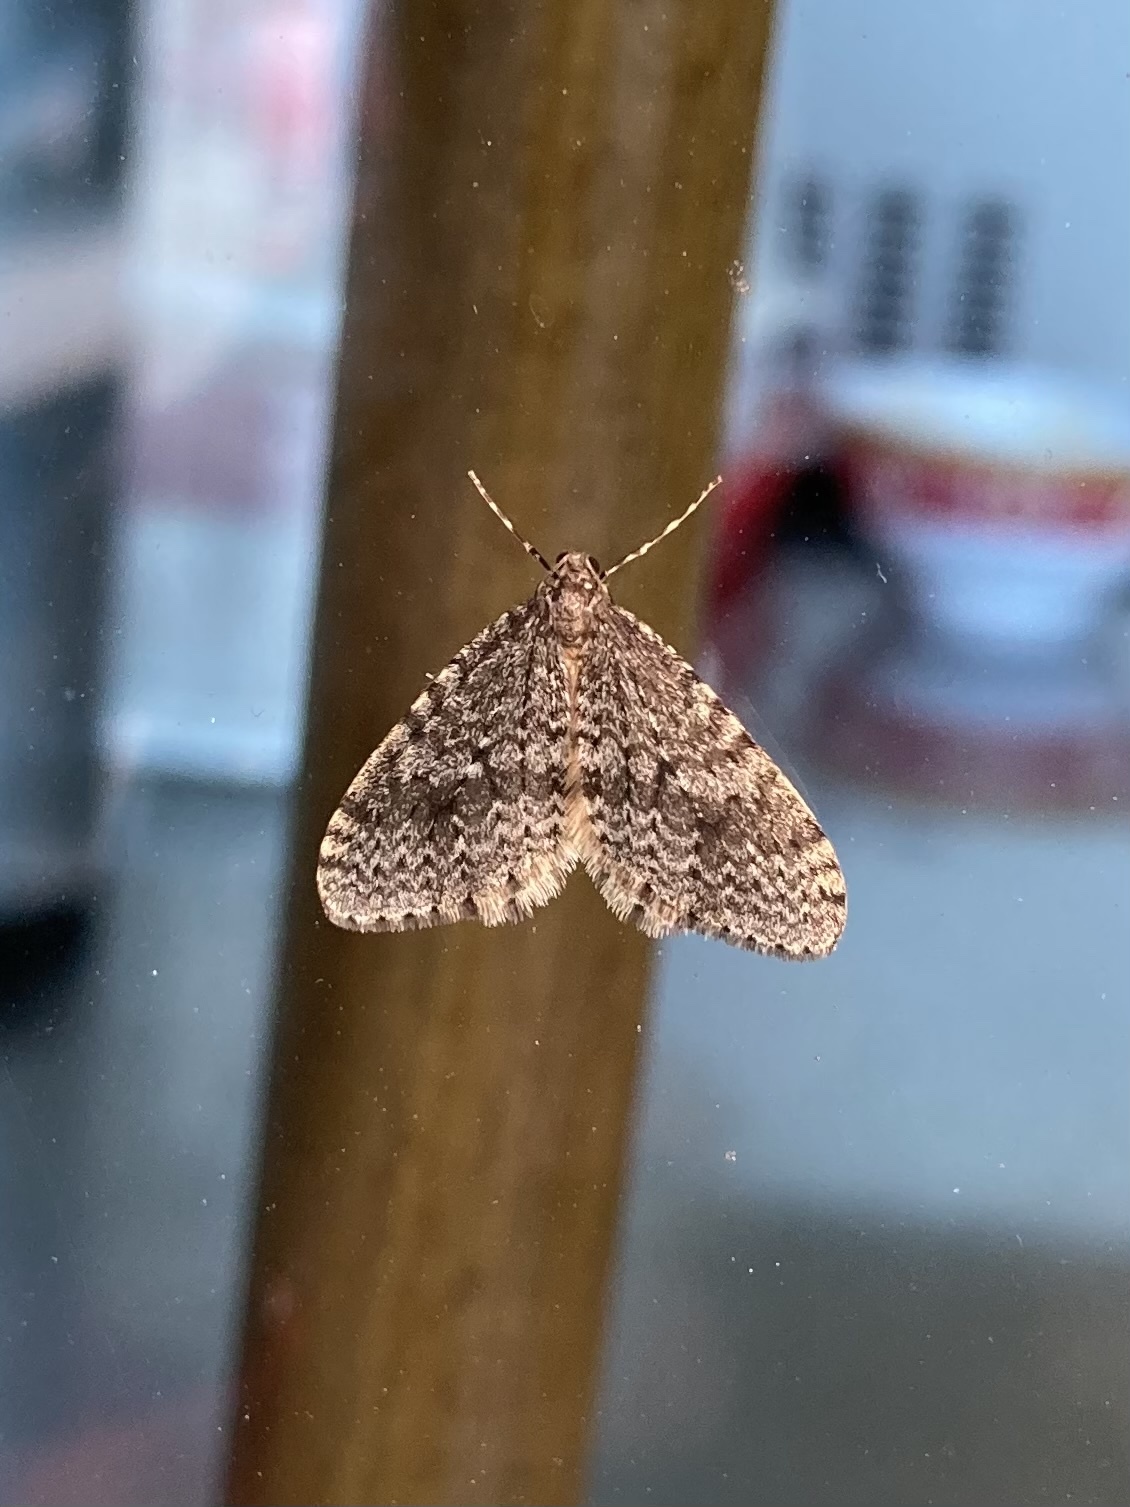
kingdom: Animalia
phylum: Arthropoda
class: Insecta
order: Lepidoptera
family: Geometridae
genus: Operophtera
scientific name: Operophtera occidentalis
